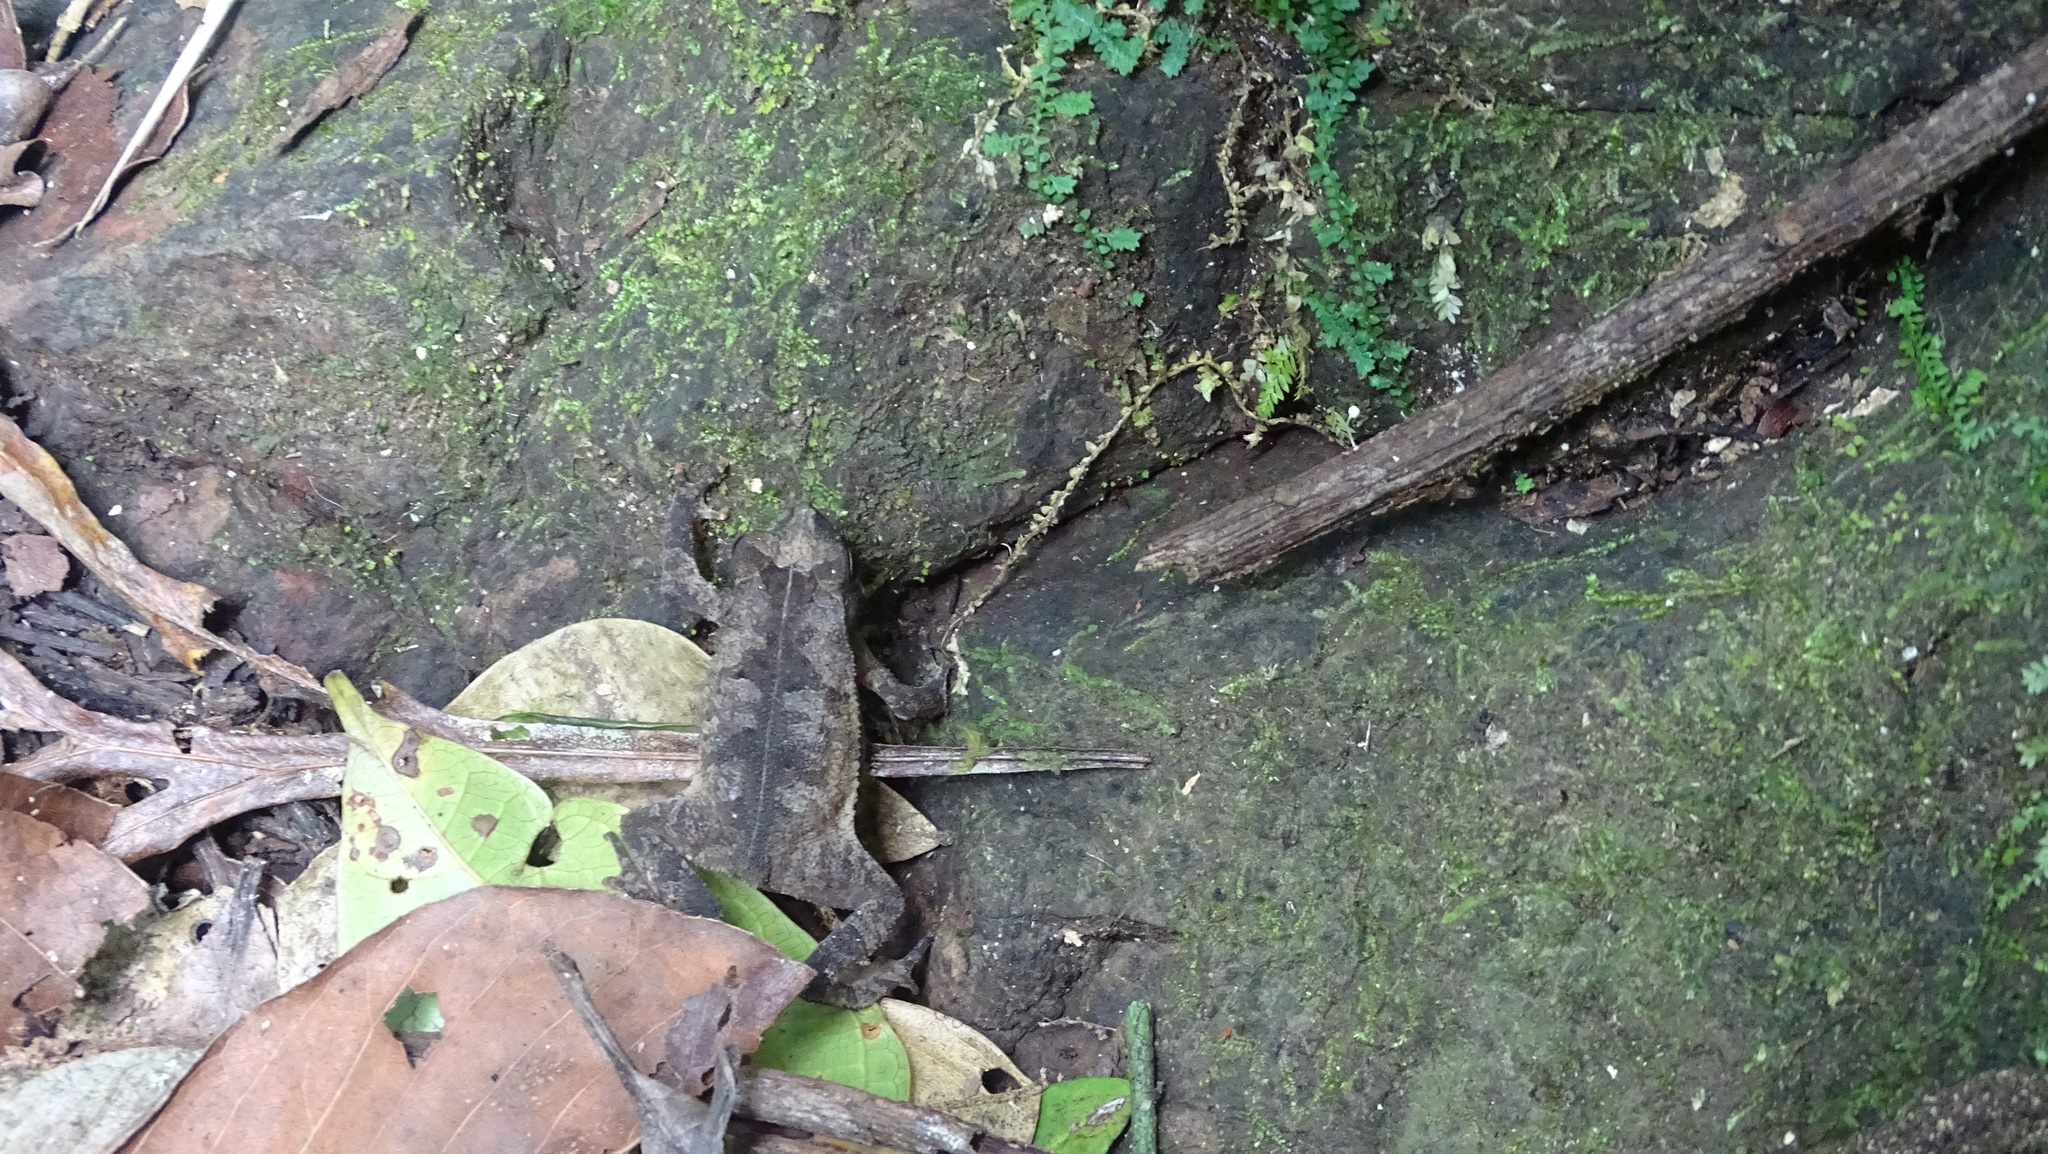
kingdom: Animalia
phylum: Chordata
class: Amphibia
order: Anura
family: Bufonidae
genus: Rhinella
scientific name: Rhinella alata
